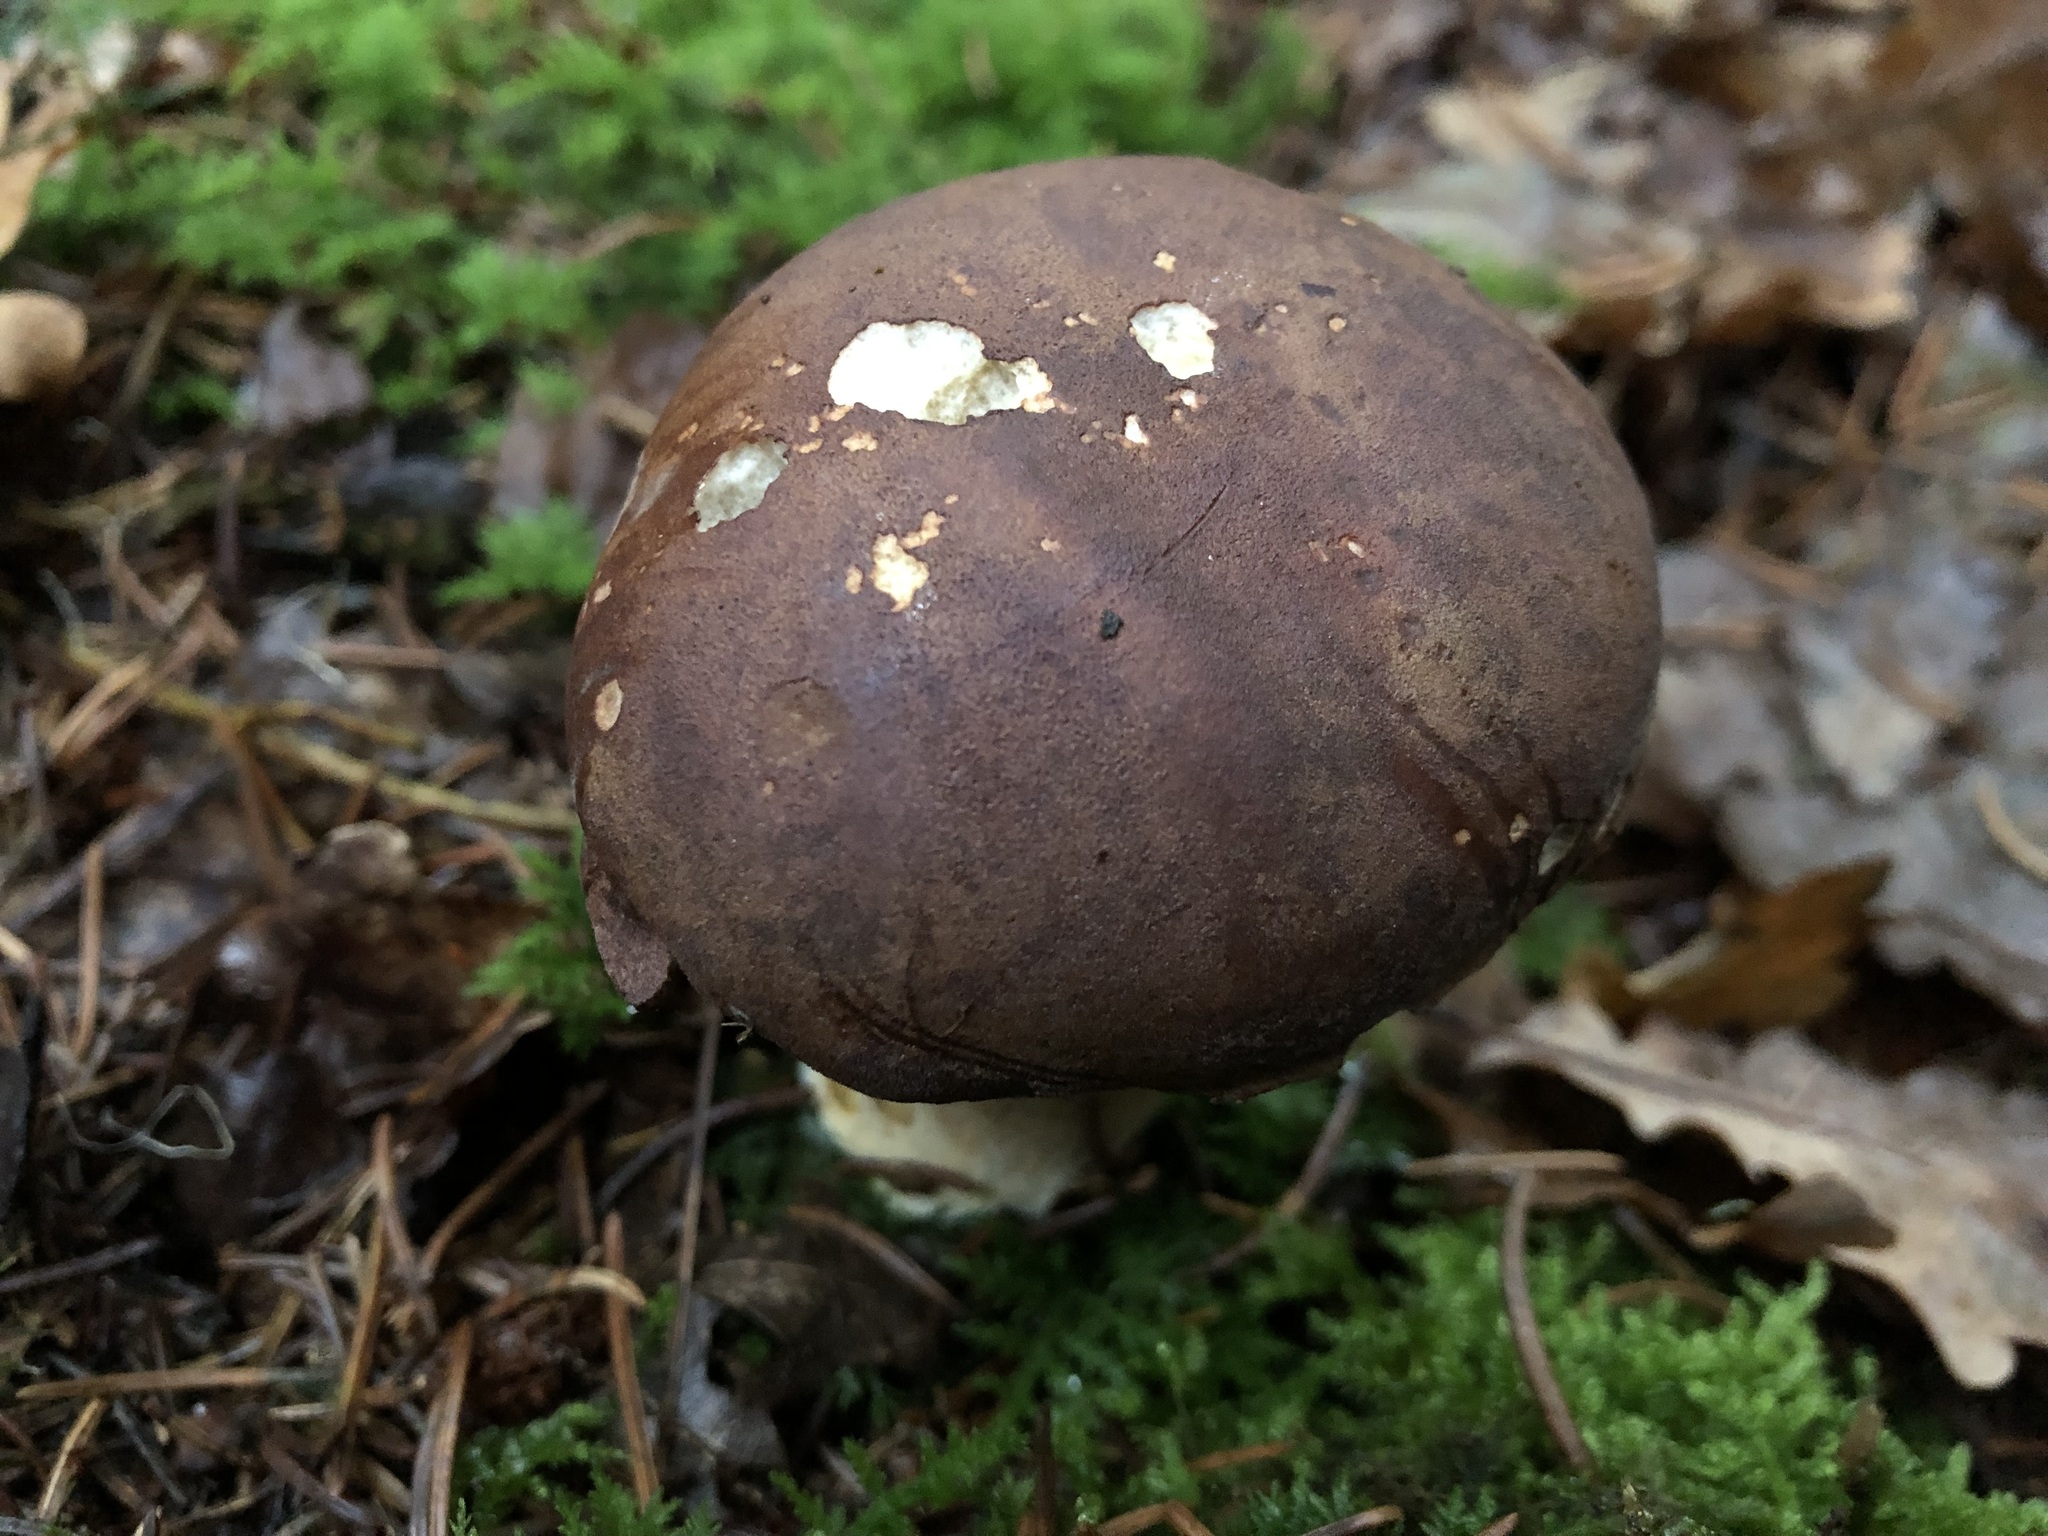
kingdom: Fungi
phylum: Basidiomycota
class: Agaricomycetes
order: Boletales
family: Boletaceae
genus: Imleria
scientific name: Imleria badia
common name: Bay bolete
